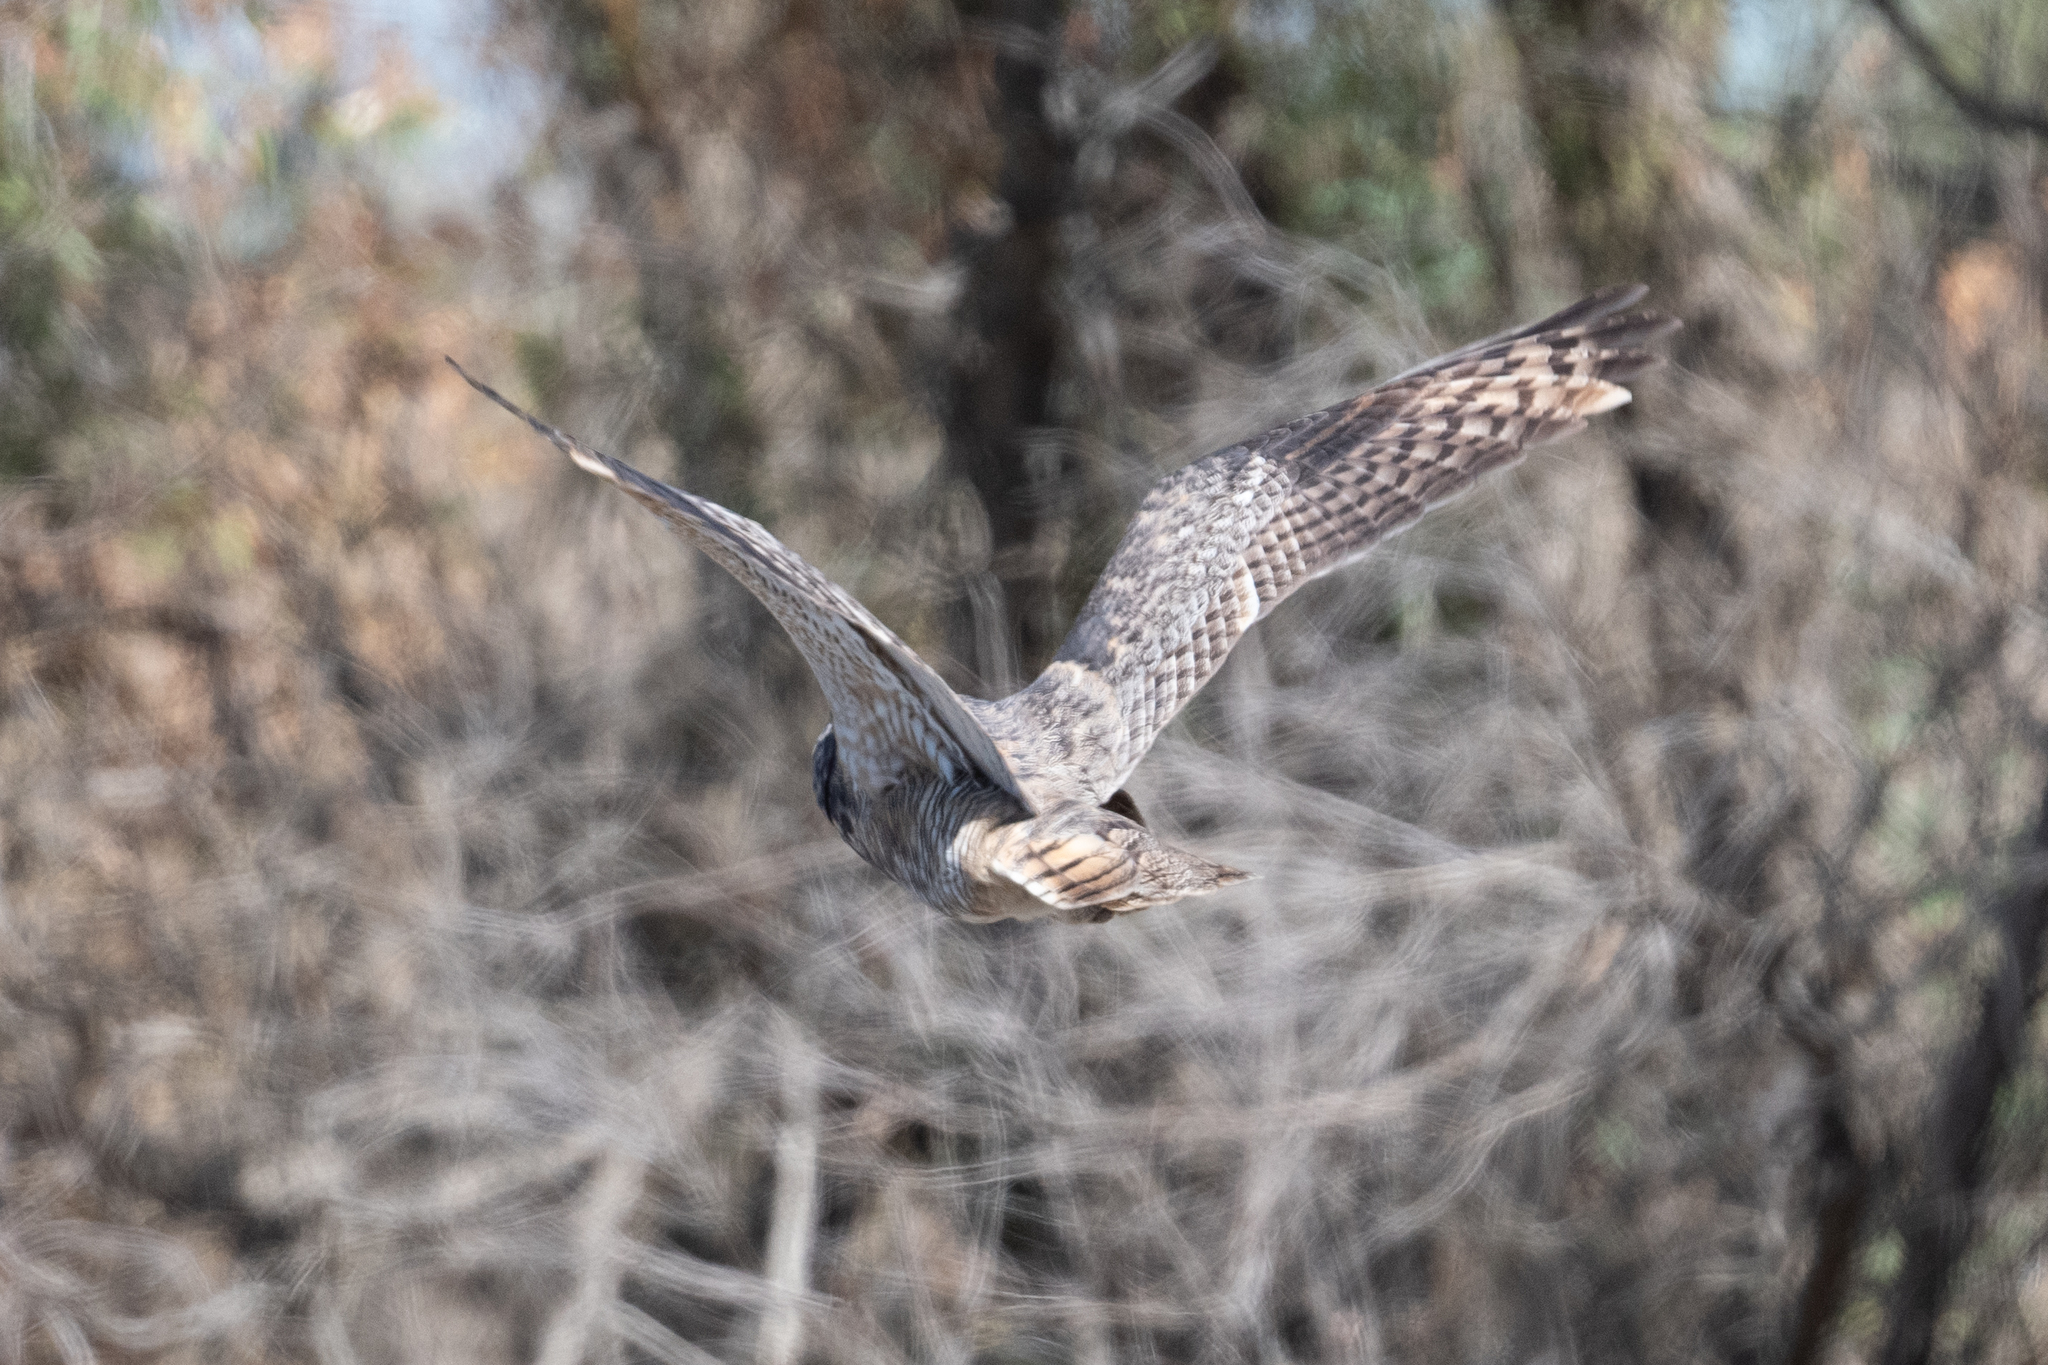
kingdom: Animalia
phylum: Chordata
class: Aves
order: Strigiformes
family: Strigidae
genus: Bubo
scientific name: Bubo virginianus
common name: Great horned owl
